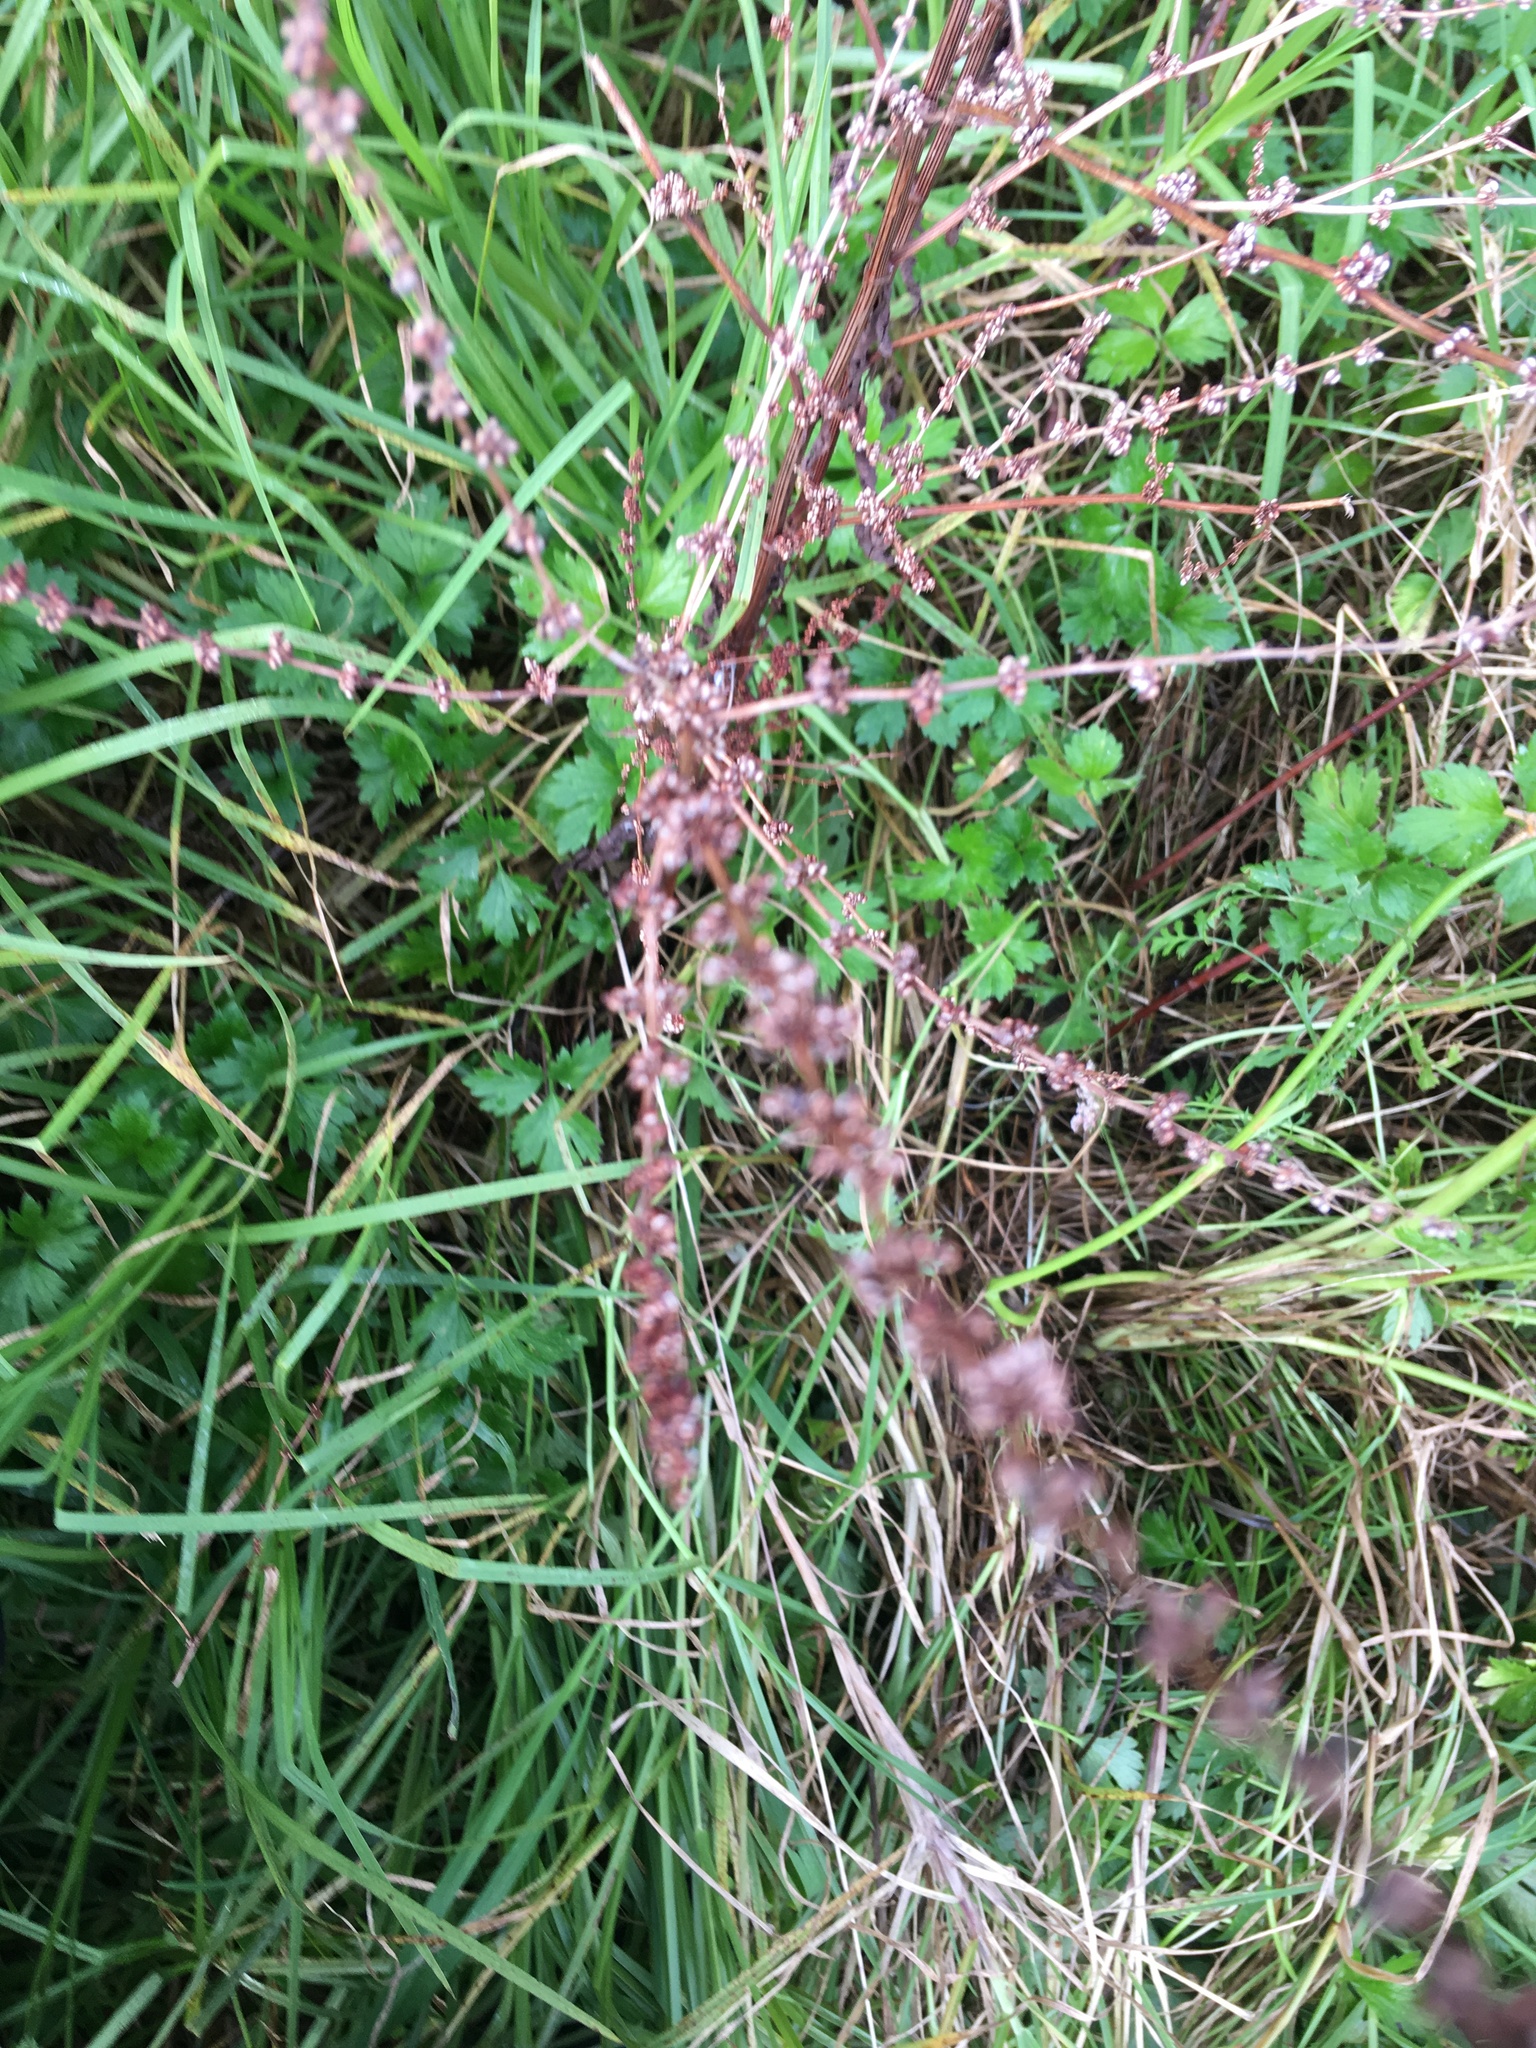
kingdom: Plantae
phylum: Tracheophyta
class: Magnoliopsida
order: Caryophyllales
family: Polygonaceae
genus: Rumex
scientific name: Rumex obtusifolius
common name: Bitter dock
